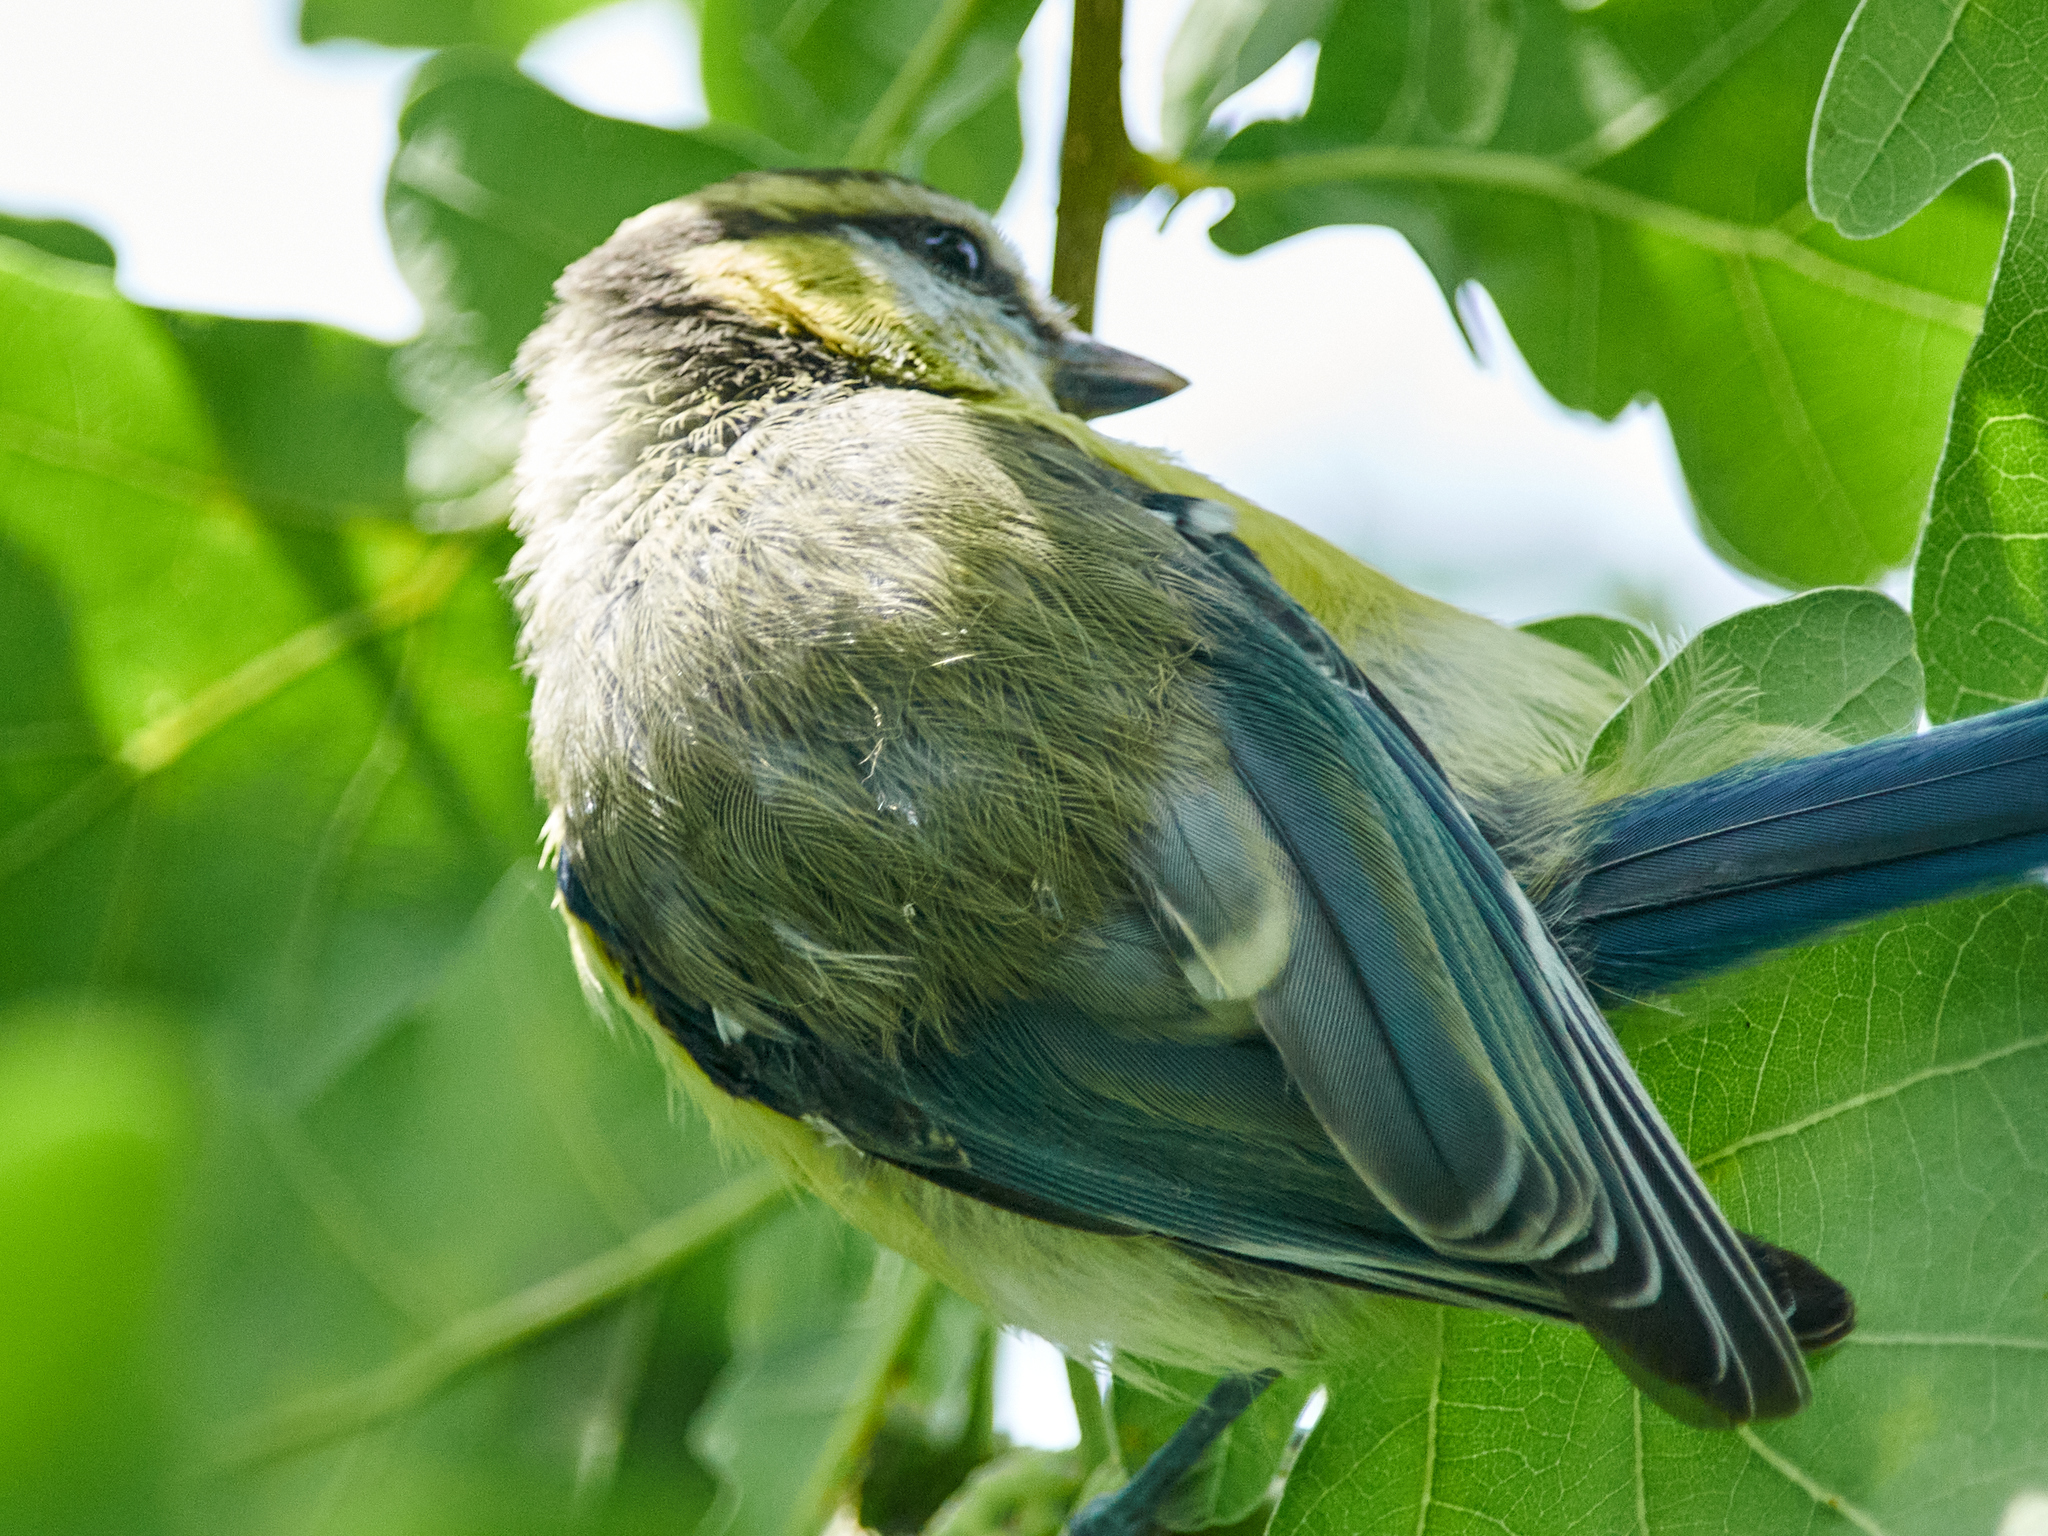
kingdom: Animalia
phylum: Chordata
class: Aves
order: Passeriformes
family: Paridae
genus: Cyanistes
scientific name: Cyanistes caeruleus
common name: Eurasian blue tit
